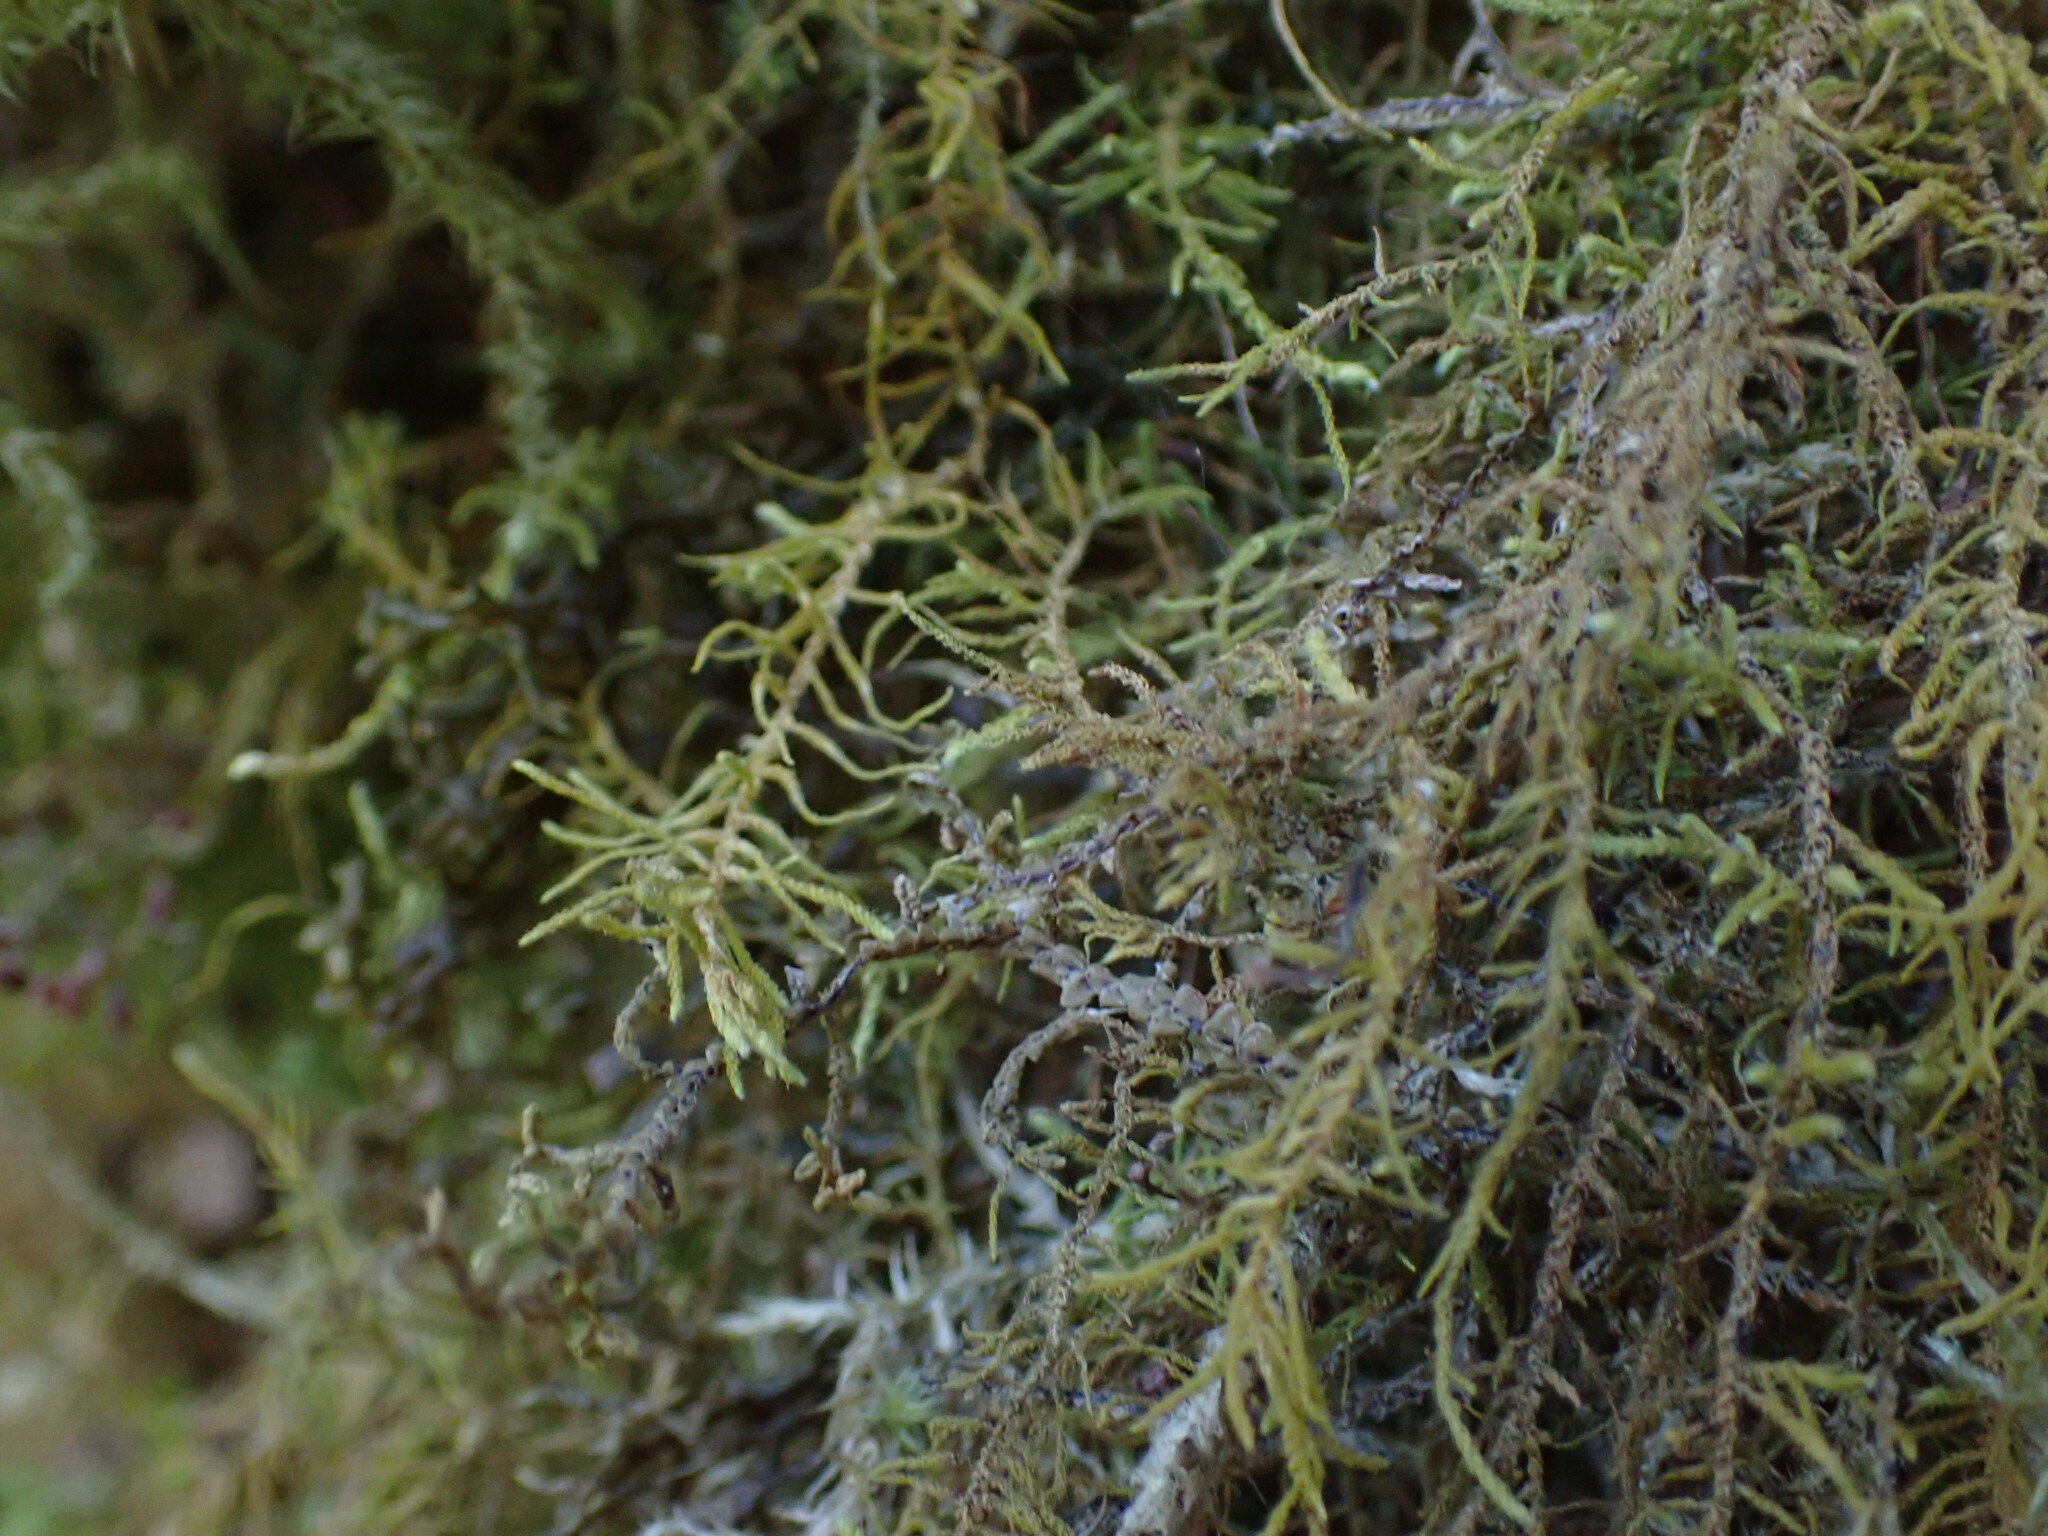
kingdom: Plantae
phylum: Bryophyta
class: Bryopsida
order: Hypnales
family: Brachytheciaceae
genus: Claopodium
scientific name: Claopodium crispifolium
